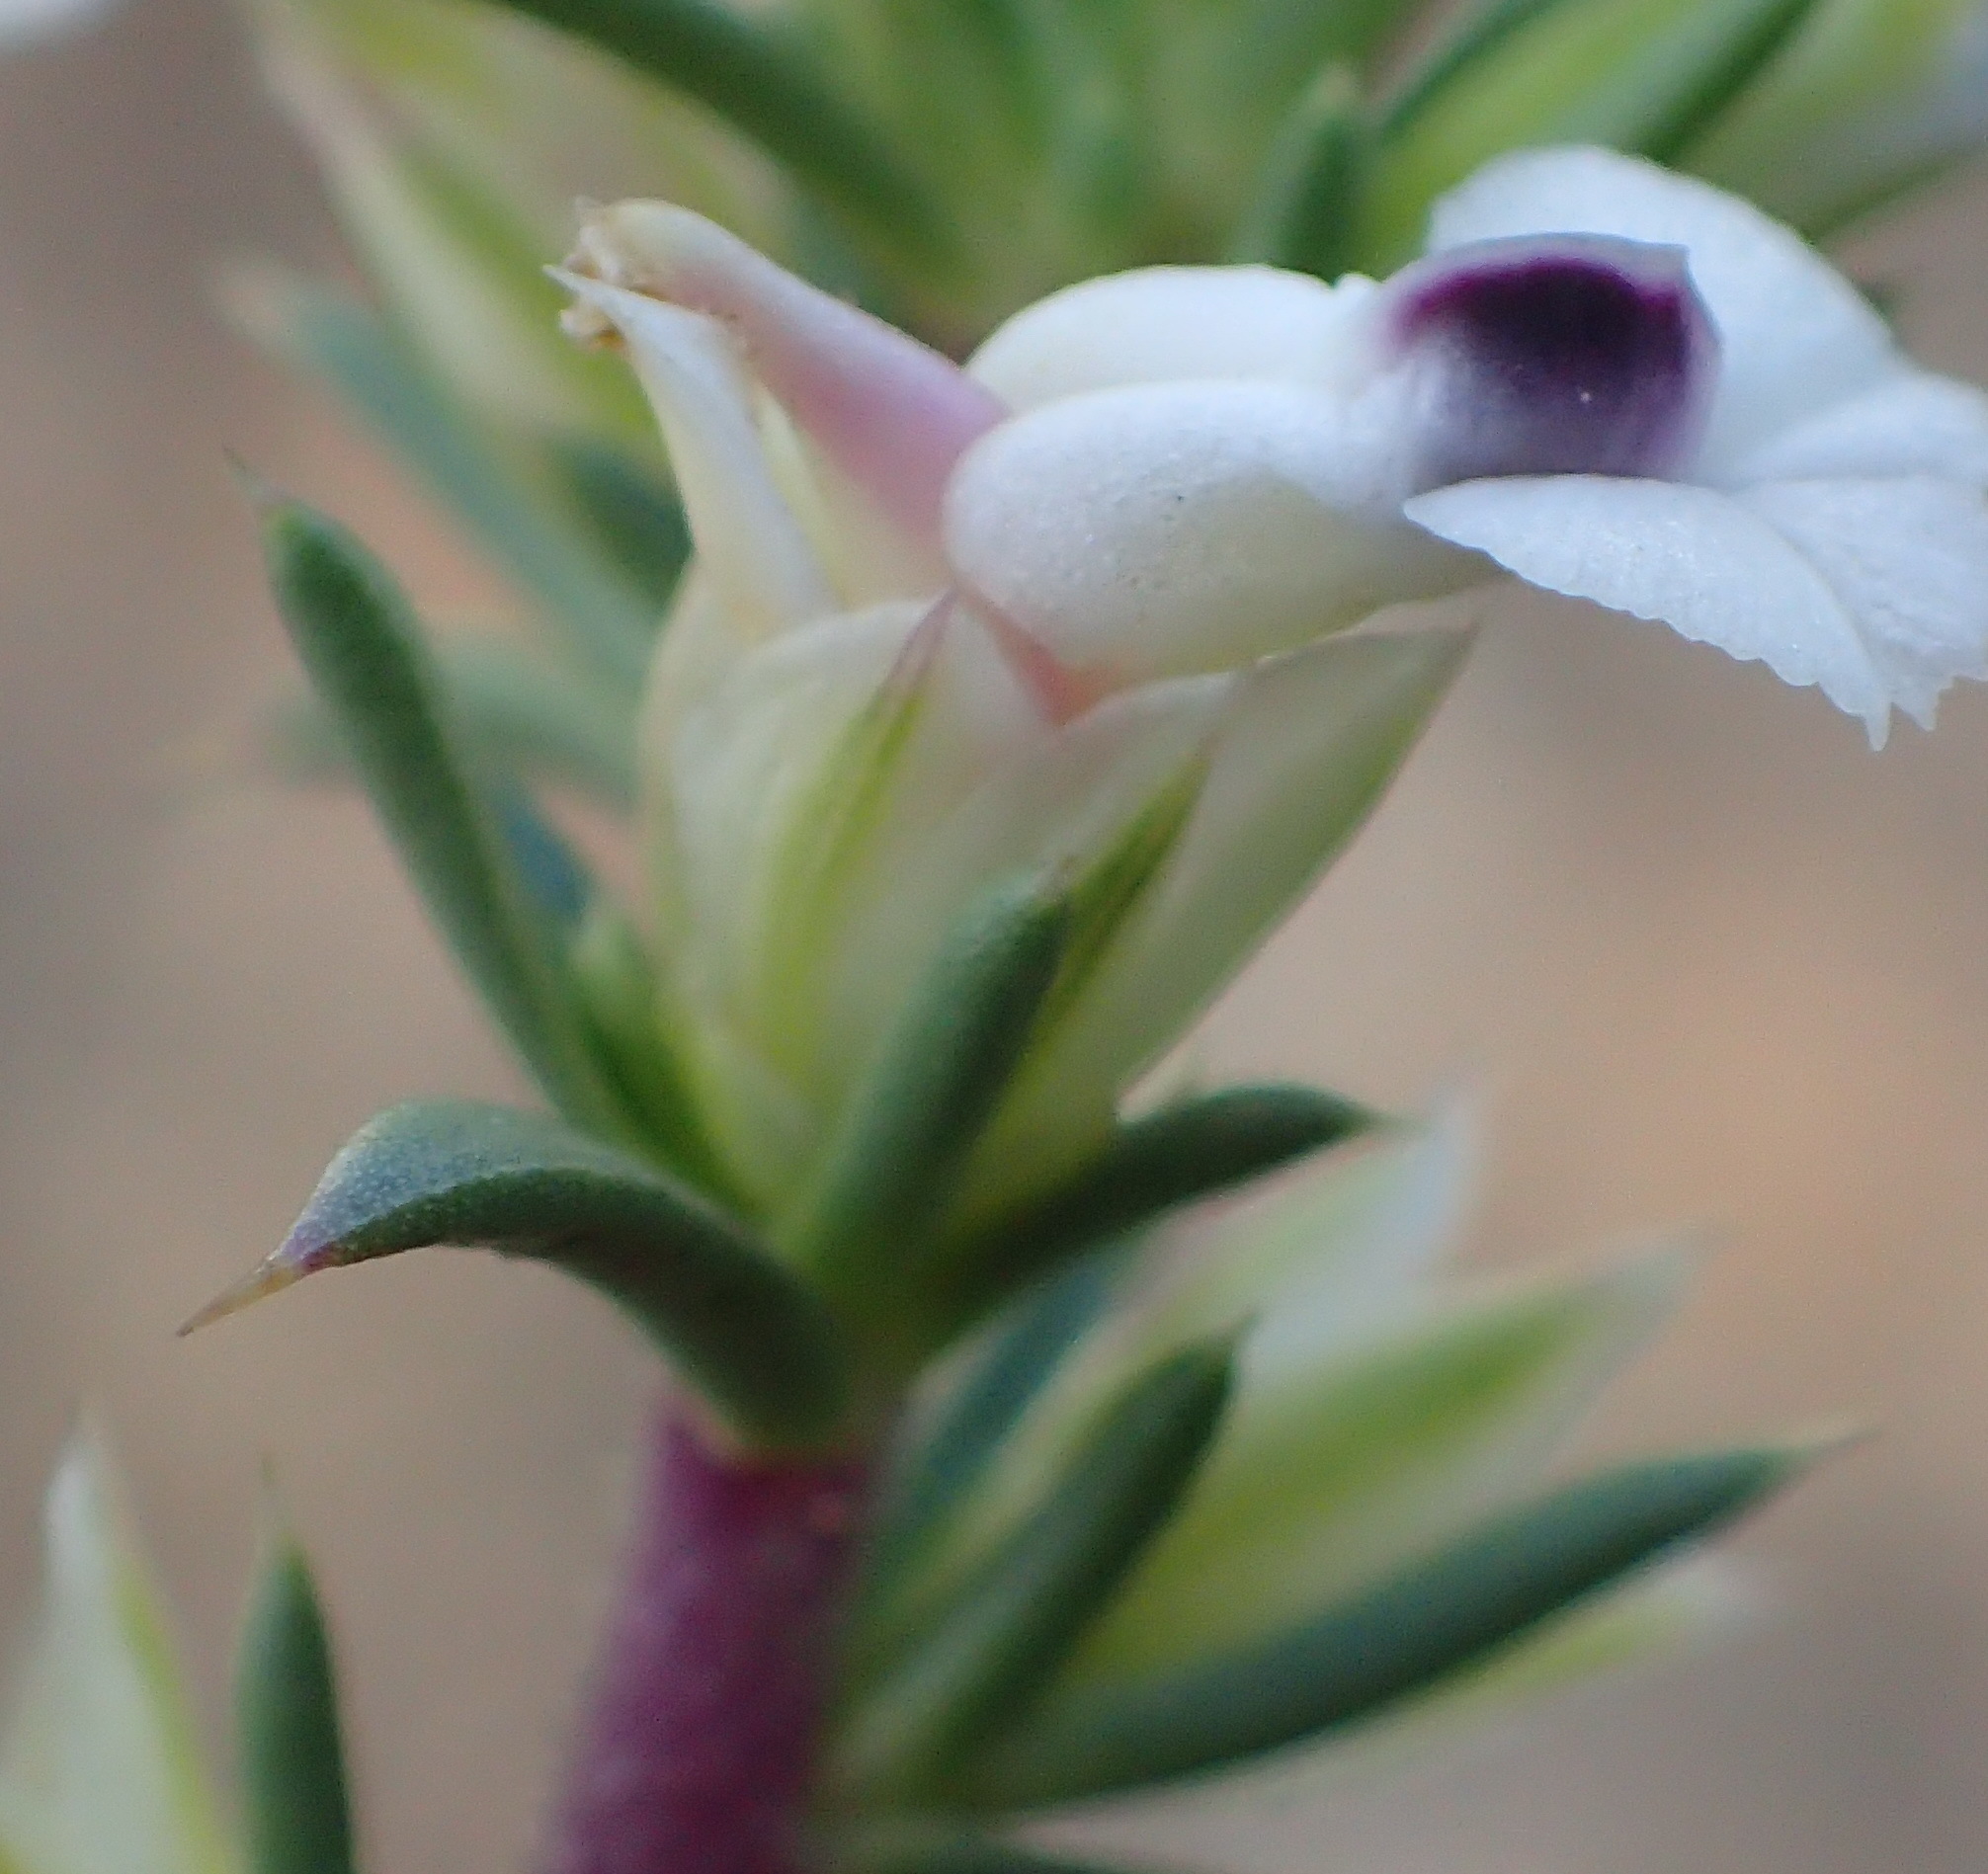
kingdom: Plantae
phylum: Tracheophyta
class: Magnoliopsida
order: Fabales
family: Polygalaceae
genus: Muraltia
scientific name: Muraltia ericifolia
